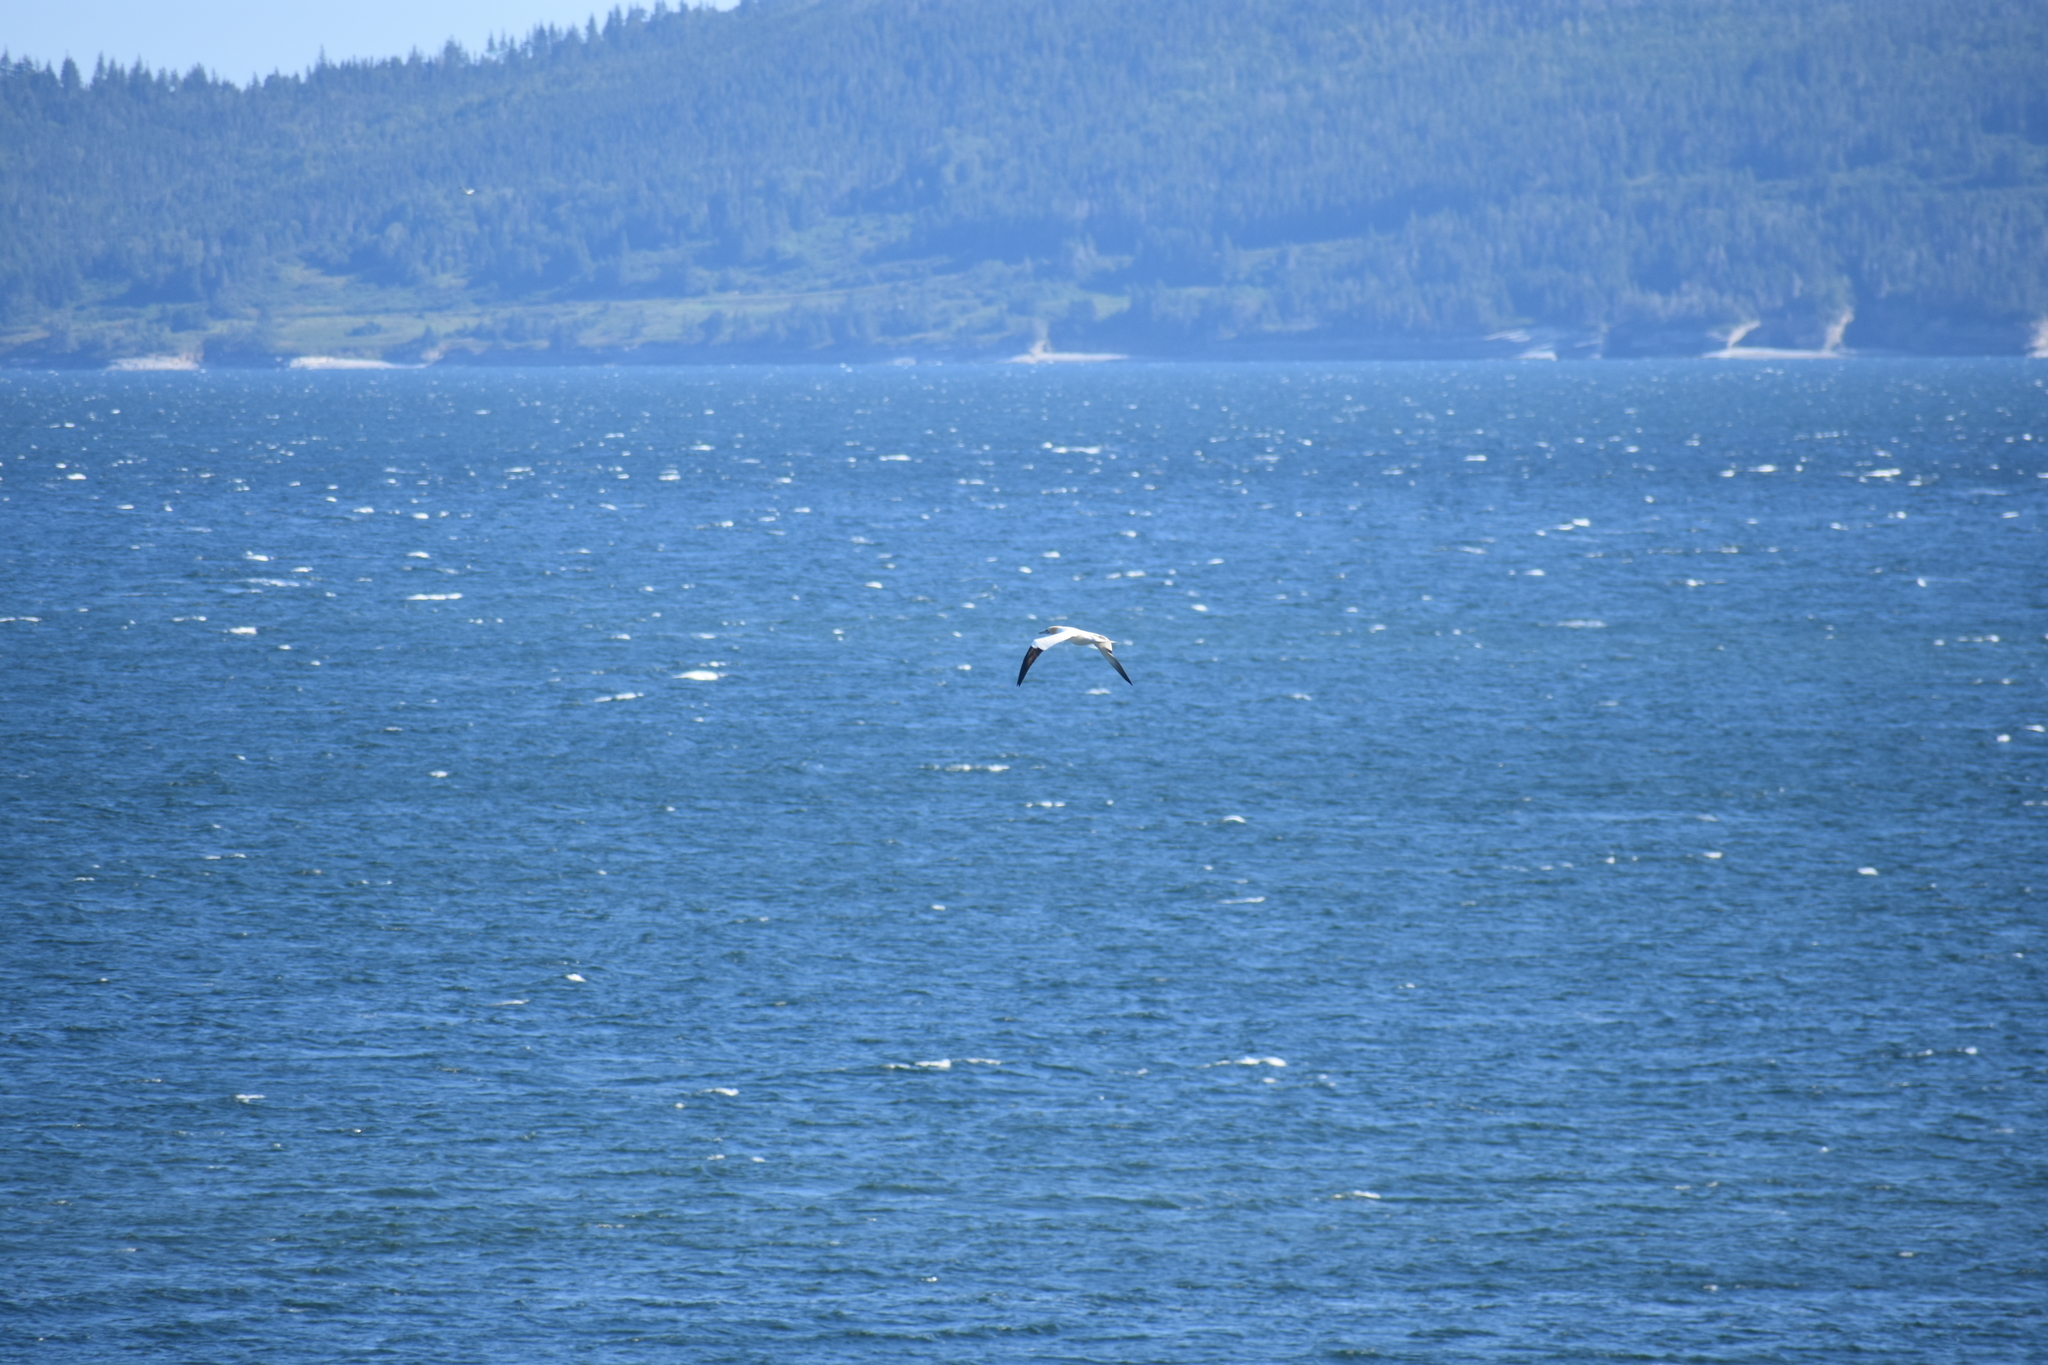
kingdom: Animalia
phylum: Chordata
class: Aves
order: Suliformes
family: Sulidae
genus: Morus
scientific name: Morus bassanus
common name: Northern gannet
